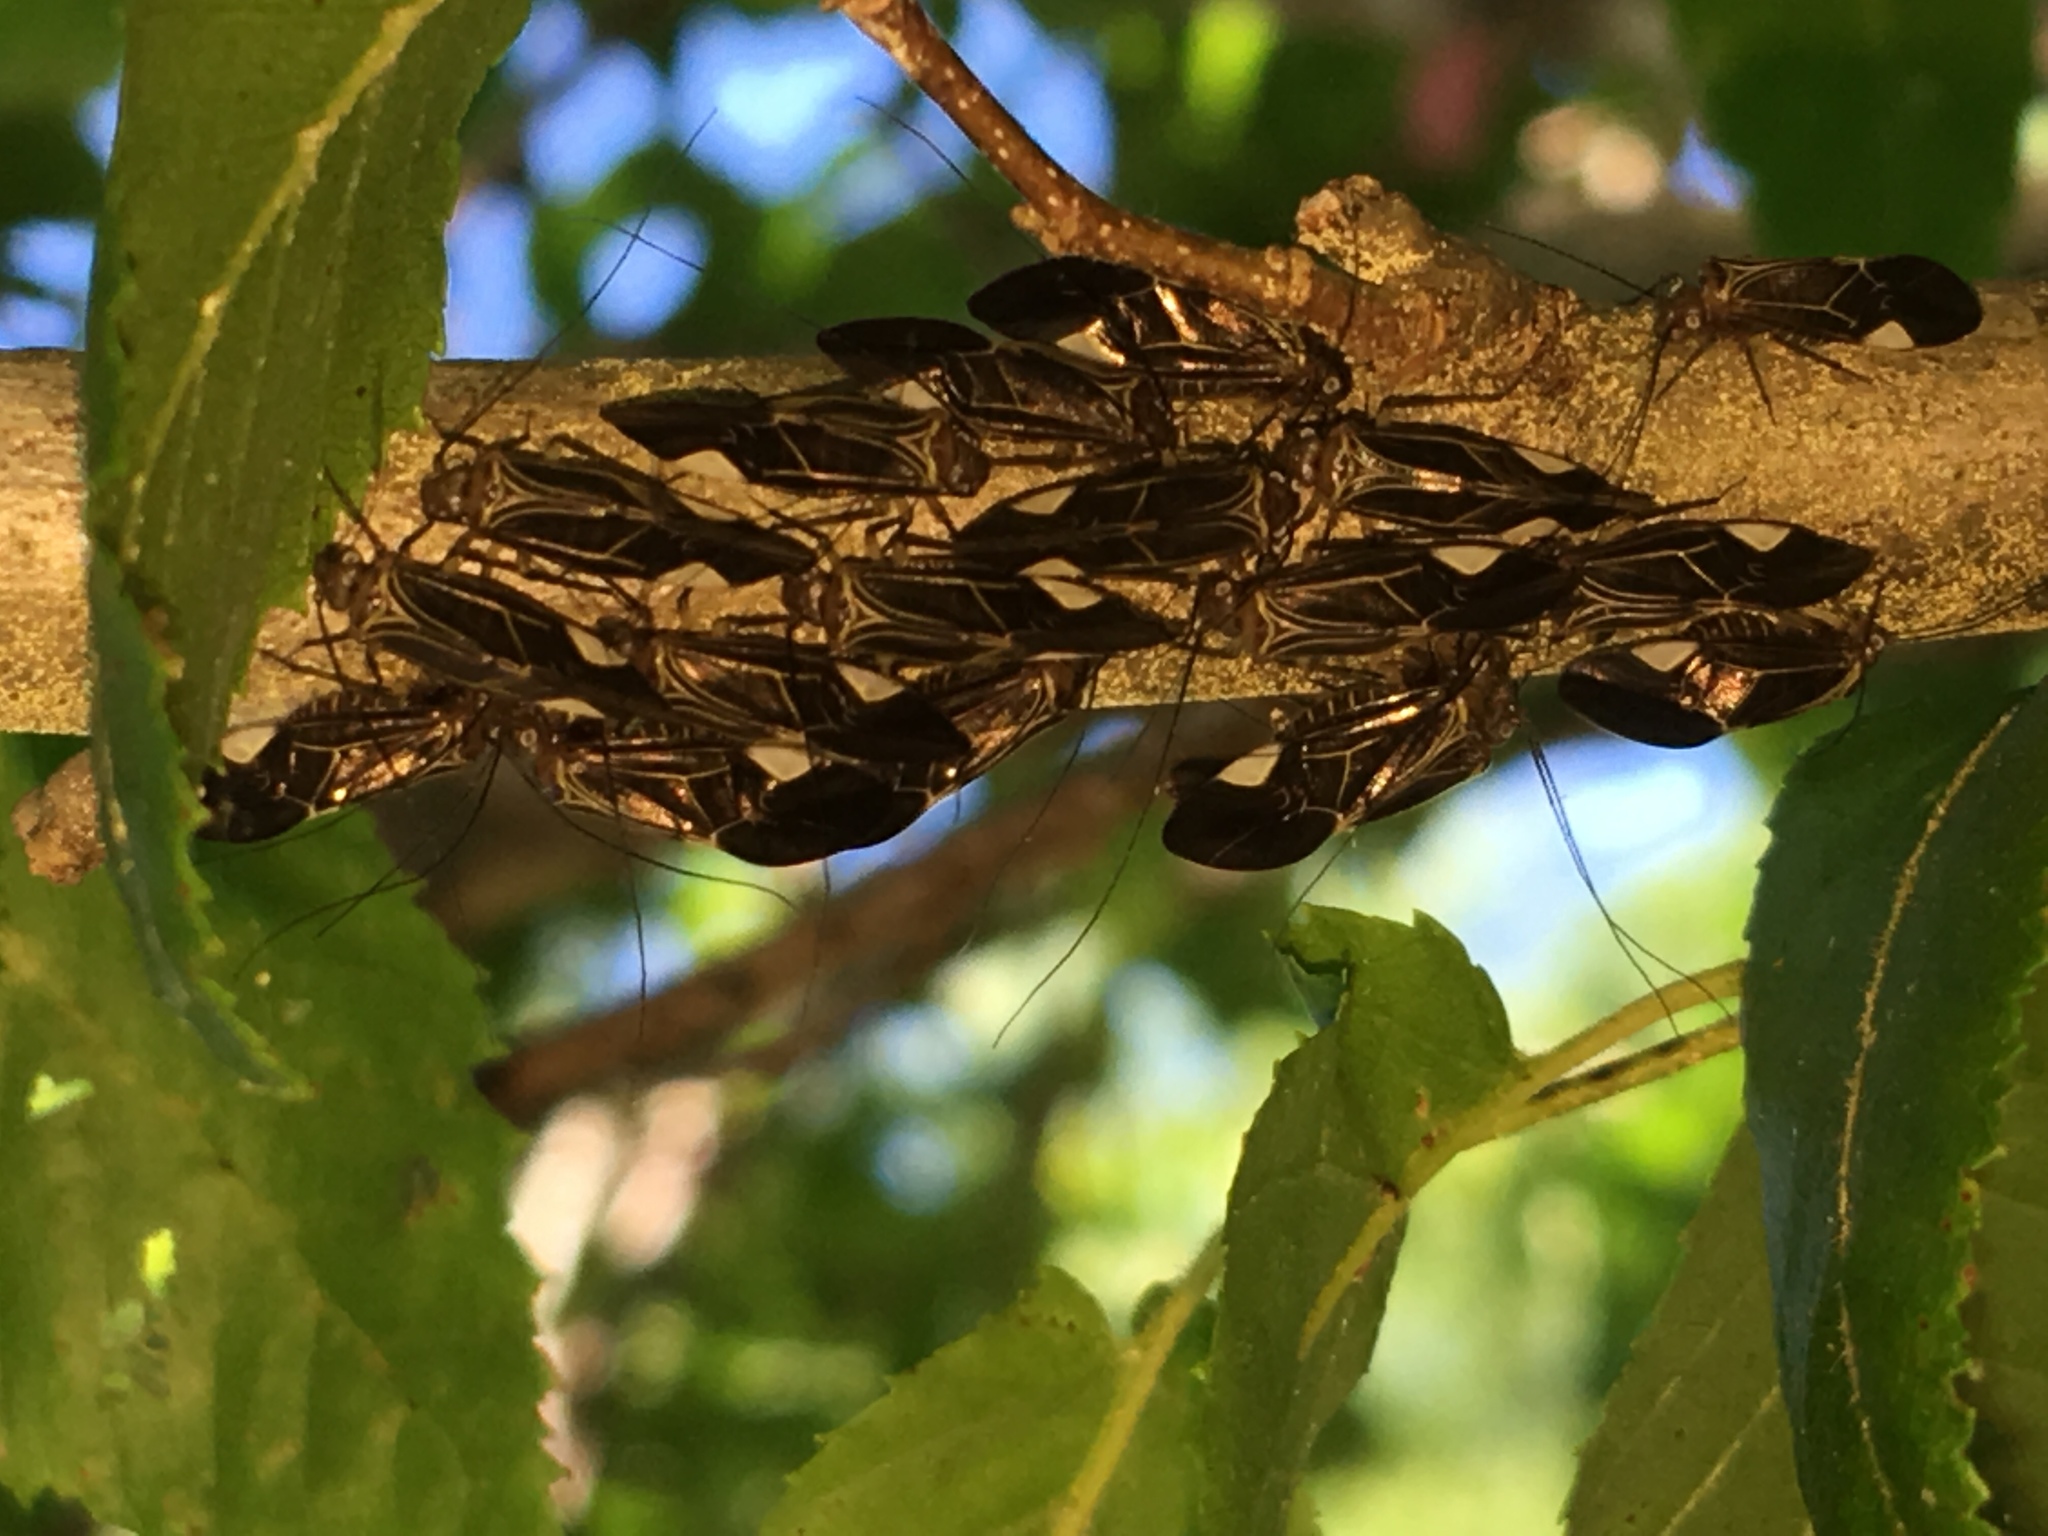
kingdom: Animalia
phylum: Arthropoda
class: Insecta
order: Psocodea
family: Psocidae
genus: Cerastipsocus
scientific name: Cerastipsocus venosus
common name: Tree cattle
